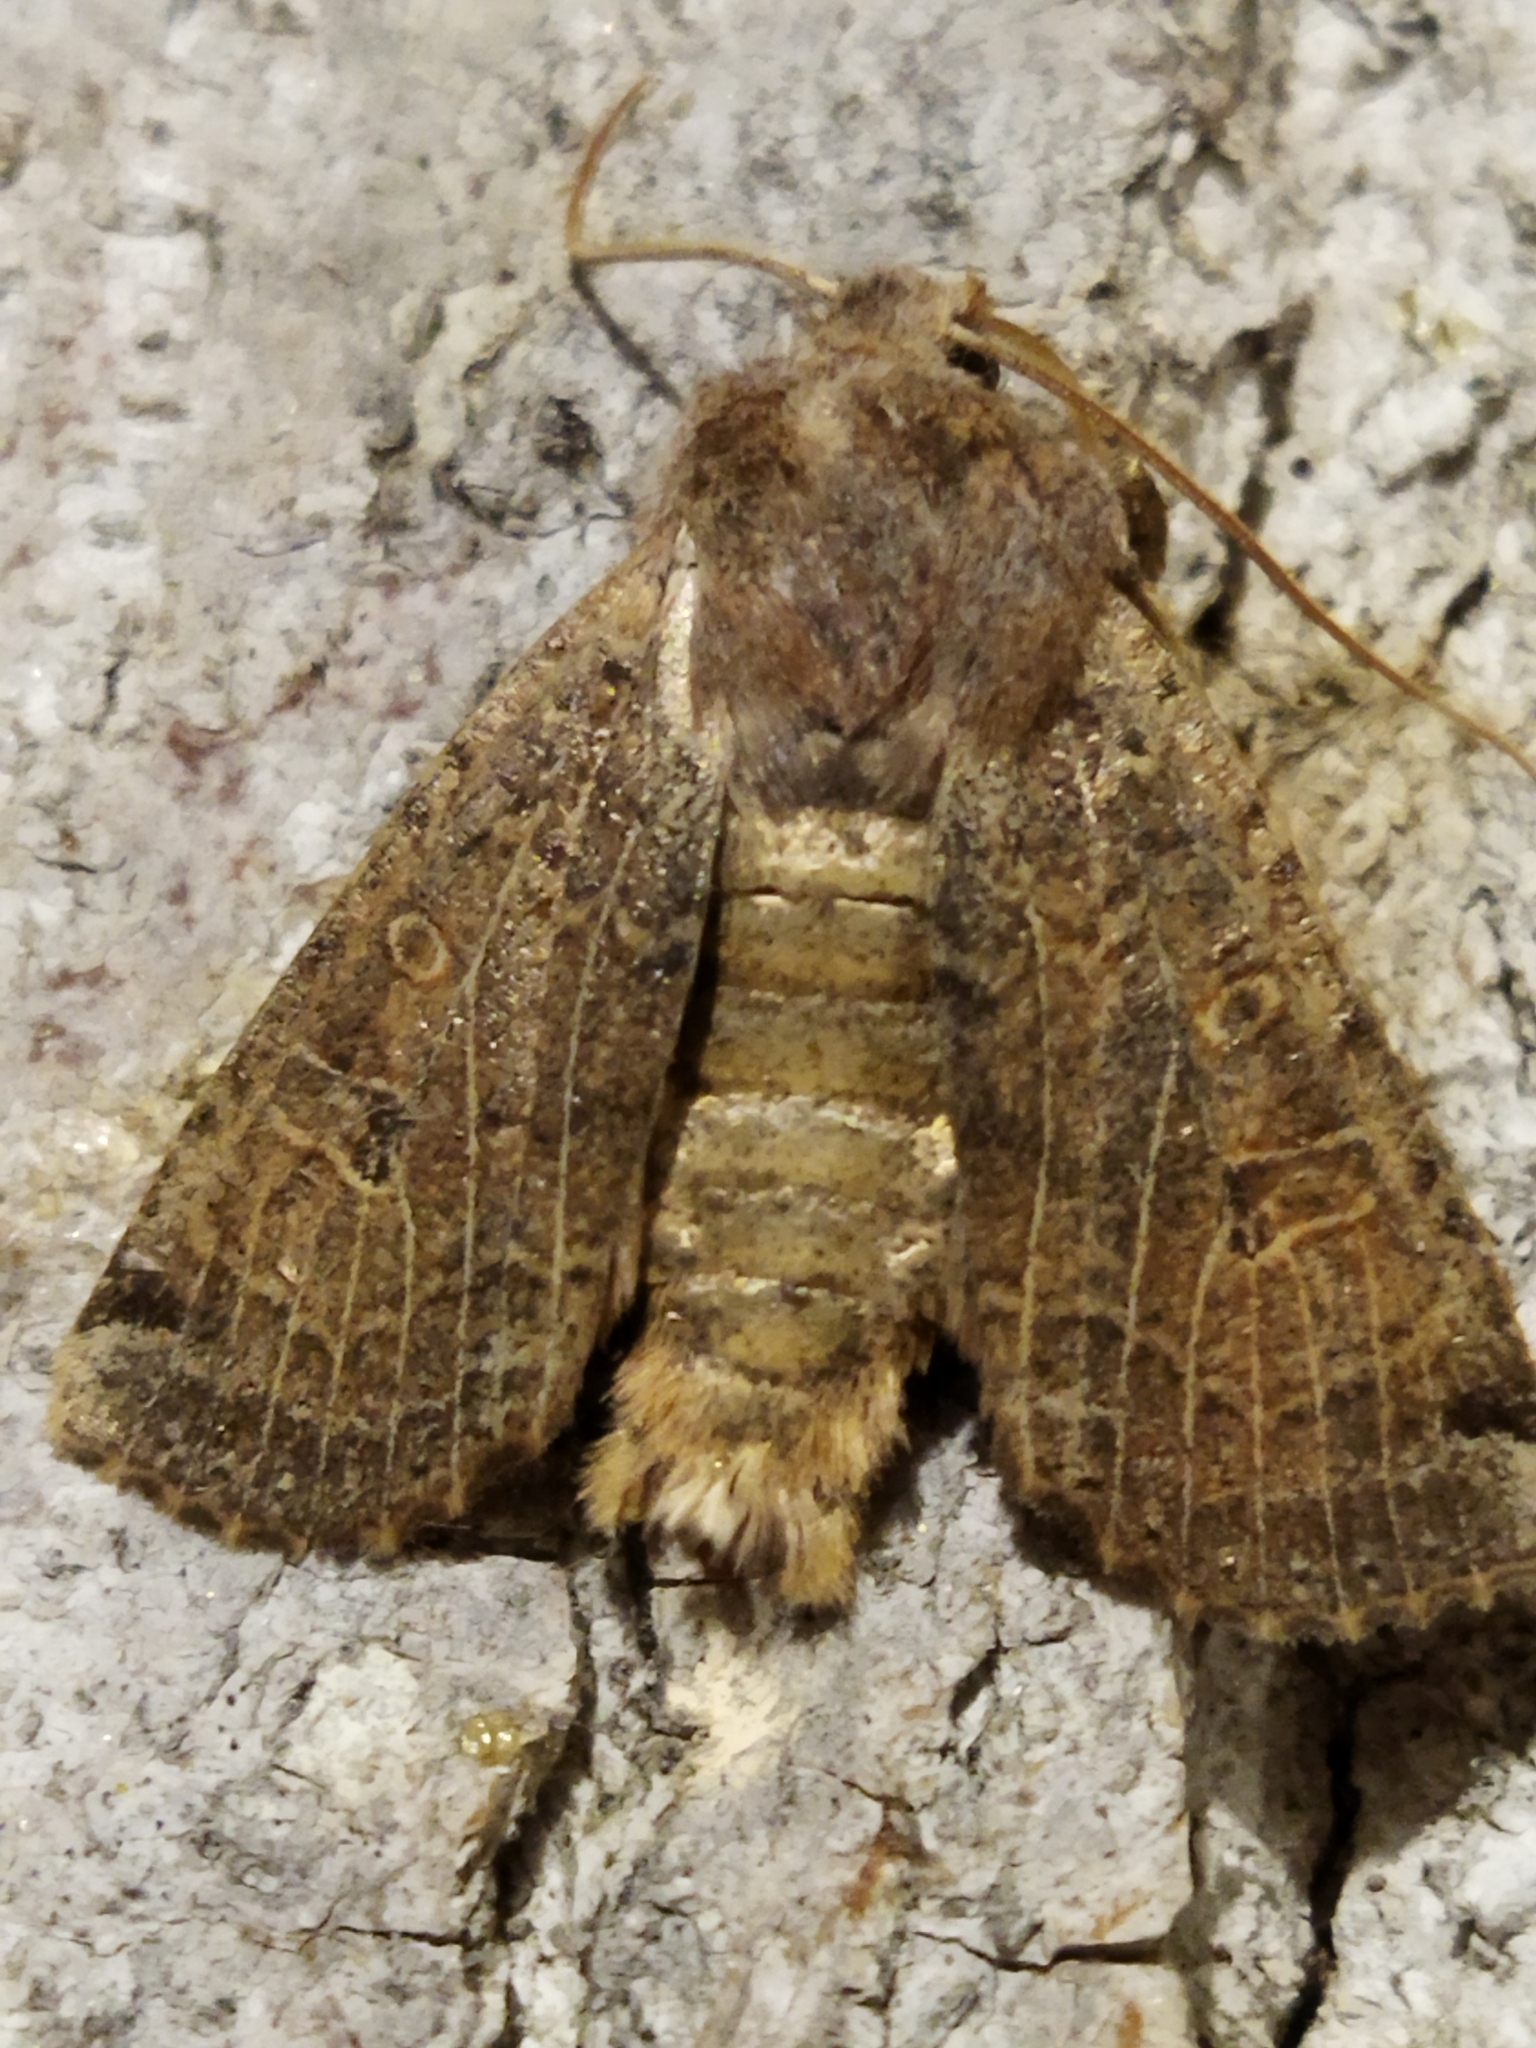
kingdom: Animalia
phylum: Arthropoda
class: Insecta
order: Lepidoptera
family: Noctuidae
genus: Conistra
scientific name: Conistra veronicae
